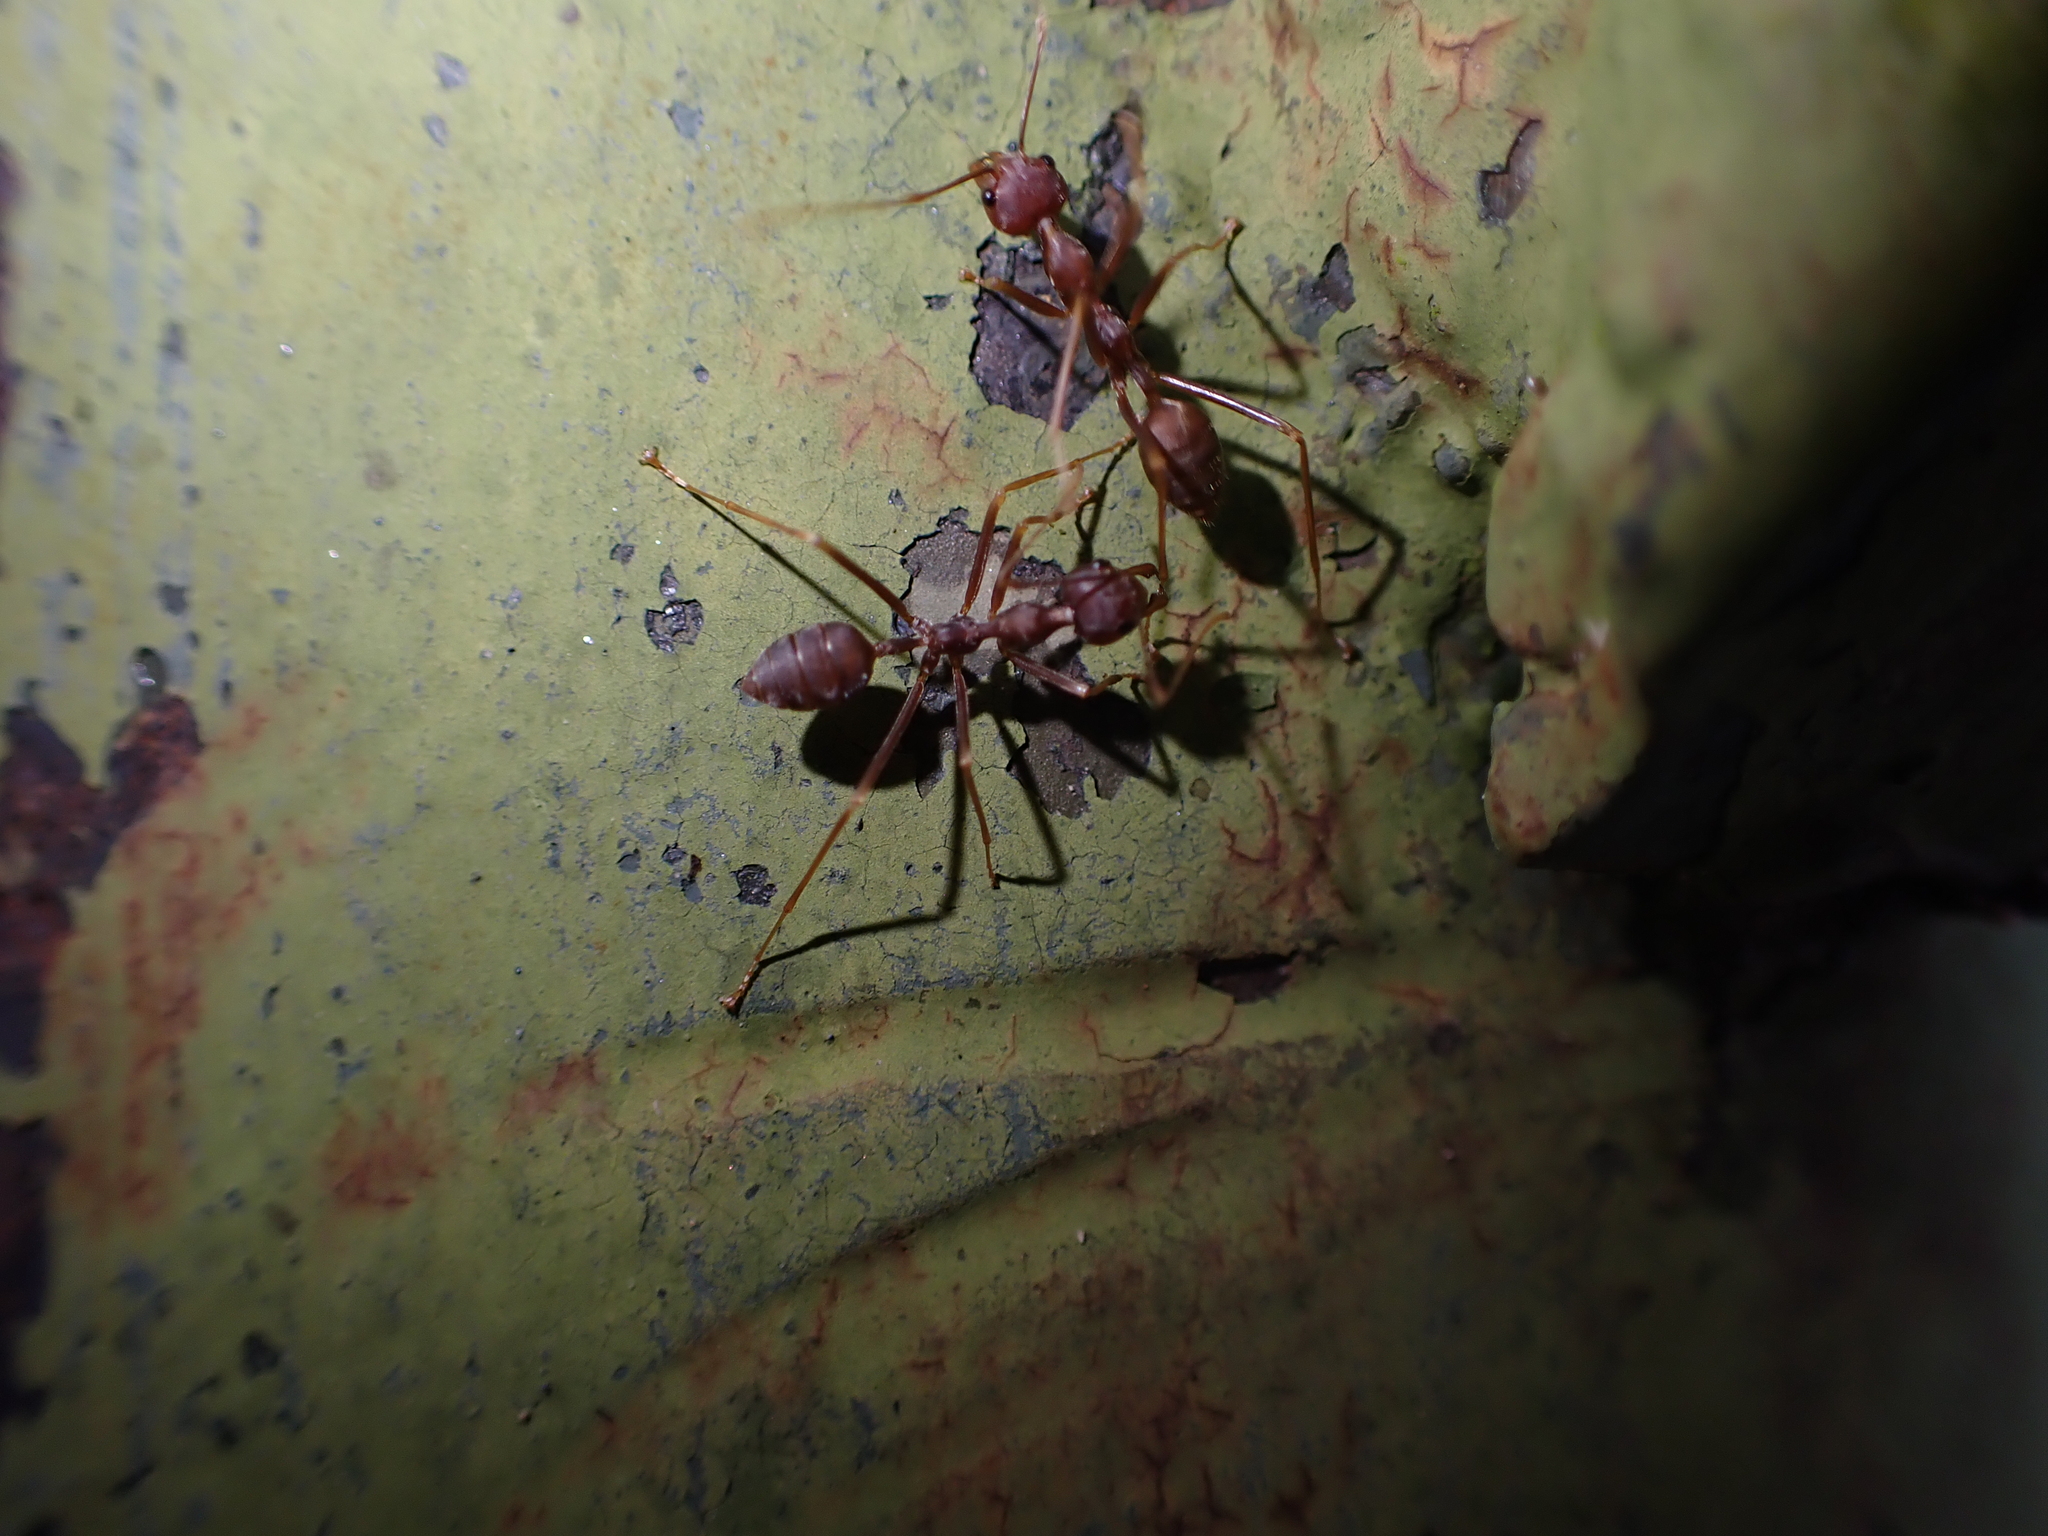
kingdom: Animalia
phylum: Arthropoda
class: Insecta
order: Hymenoptera
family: Formicidae
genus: Oecophylla
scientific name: Oecophylla smaragdina
